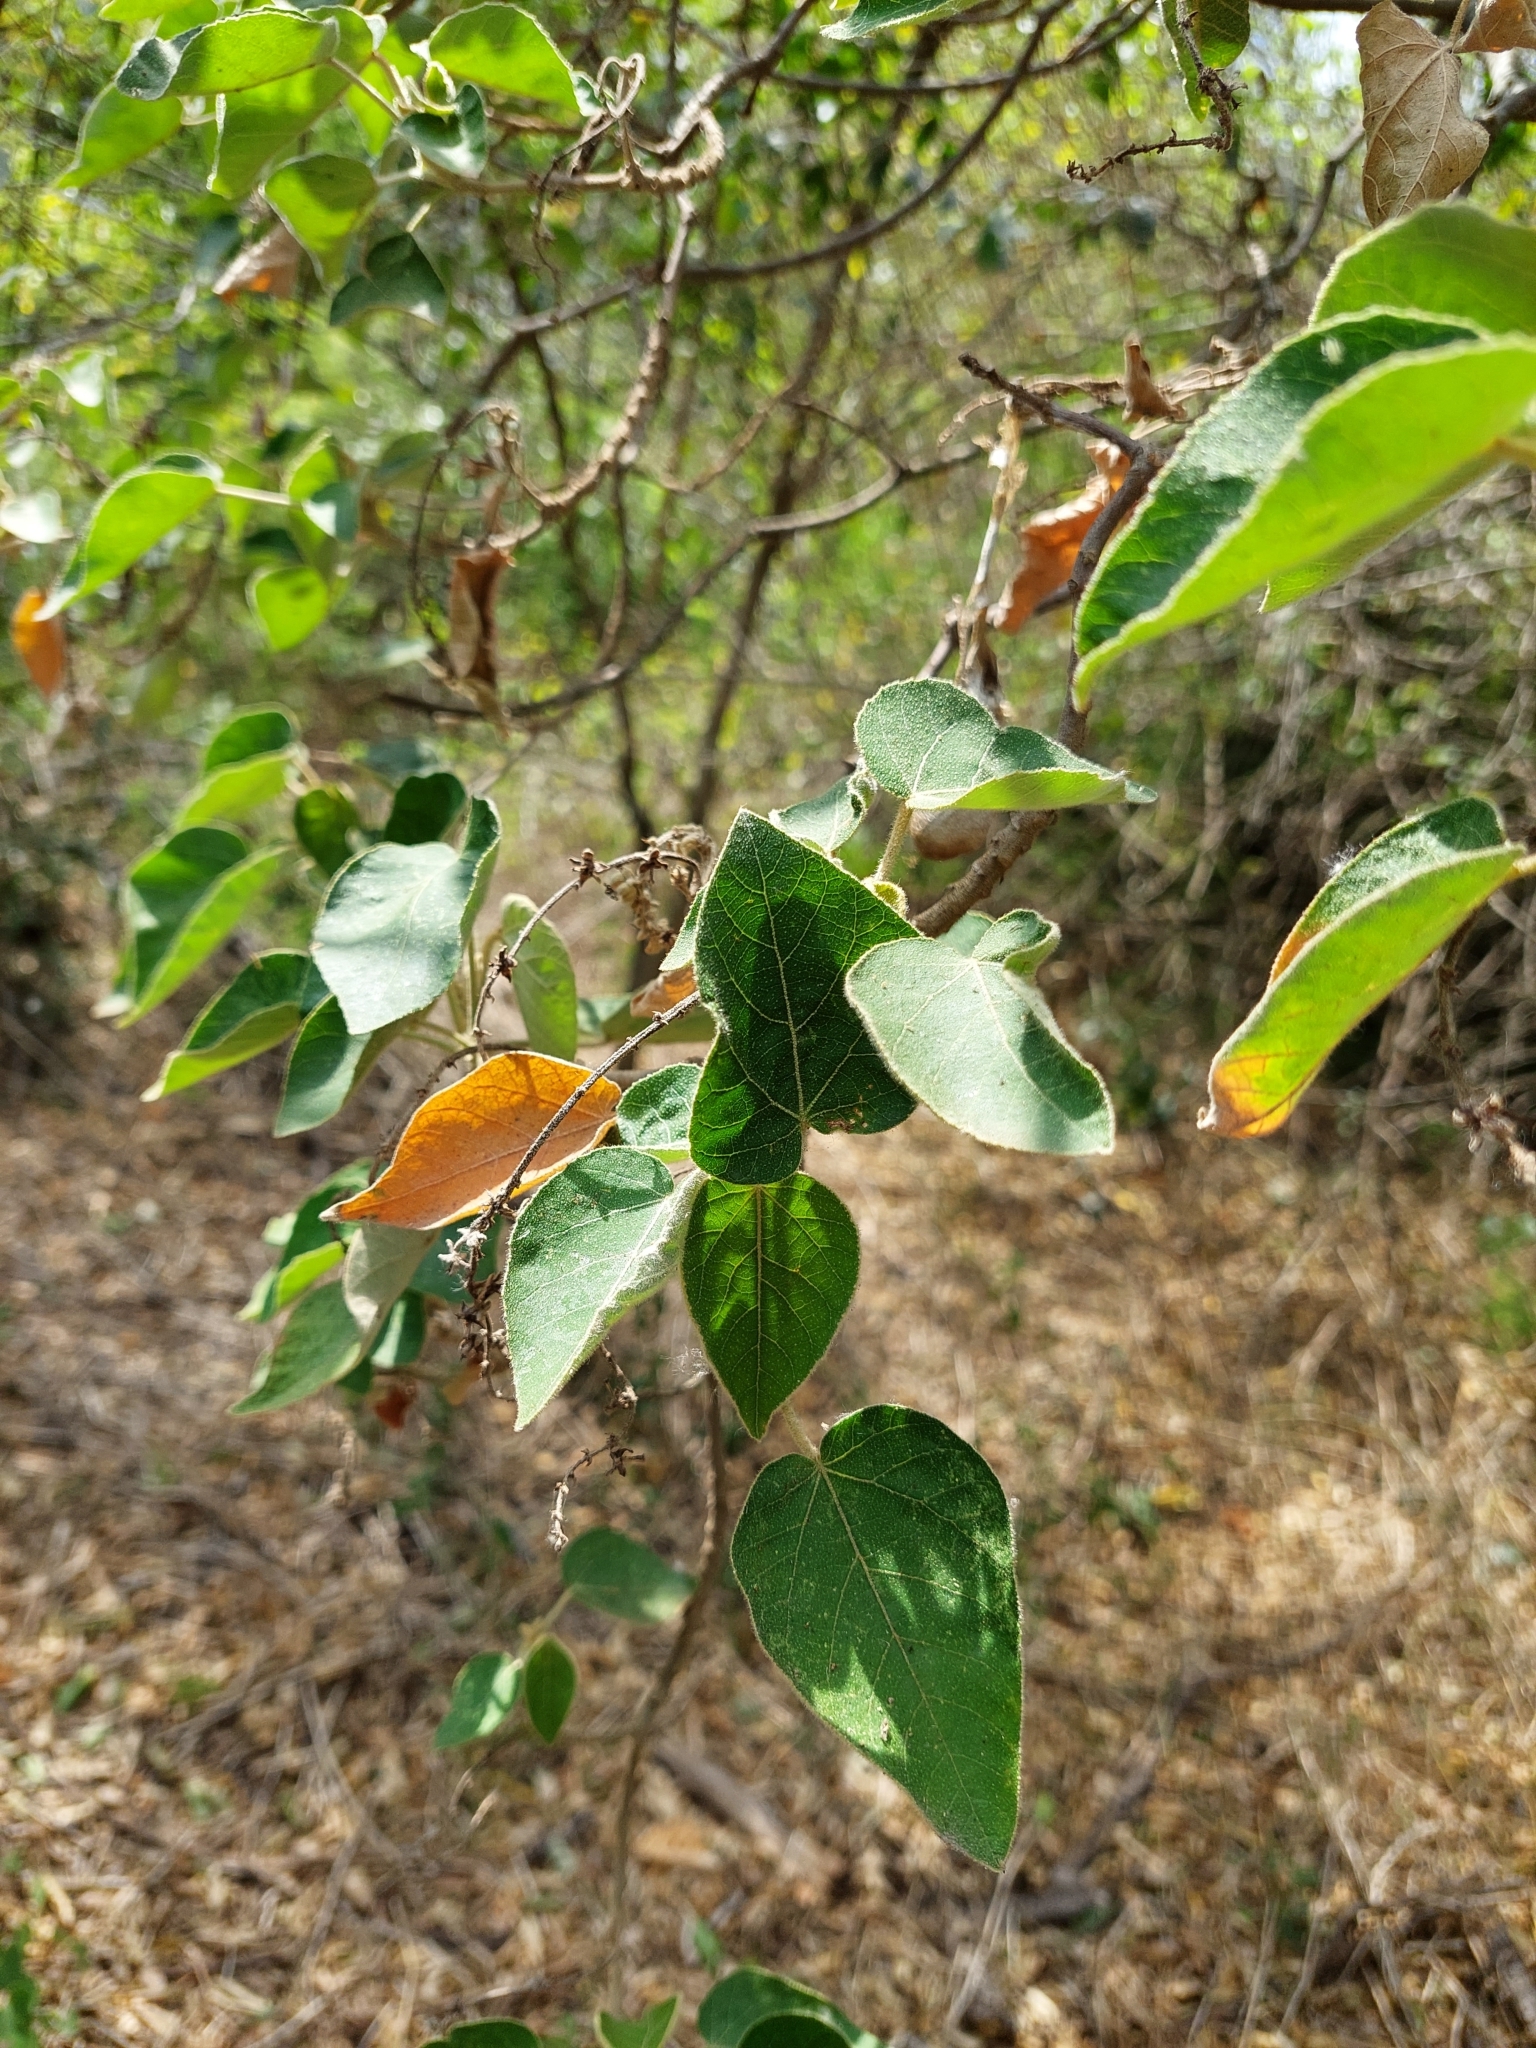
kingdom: Plantae
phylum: Tracheophyta
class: Magnoliopsida
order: Malpighiales
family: Euphorbiaceae
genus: Croton
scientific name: Croton urucurana
